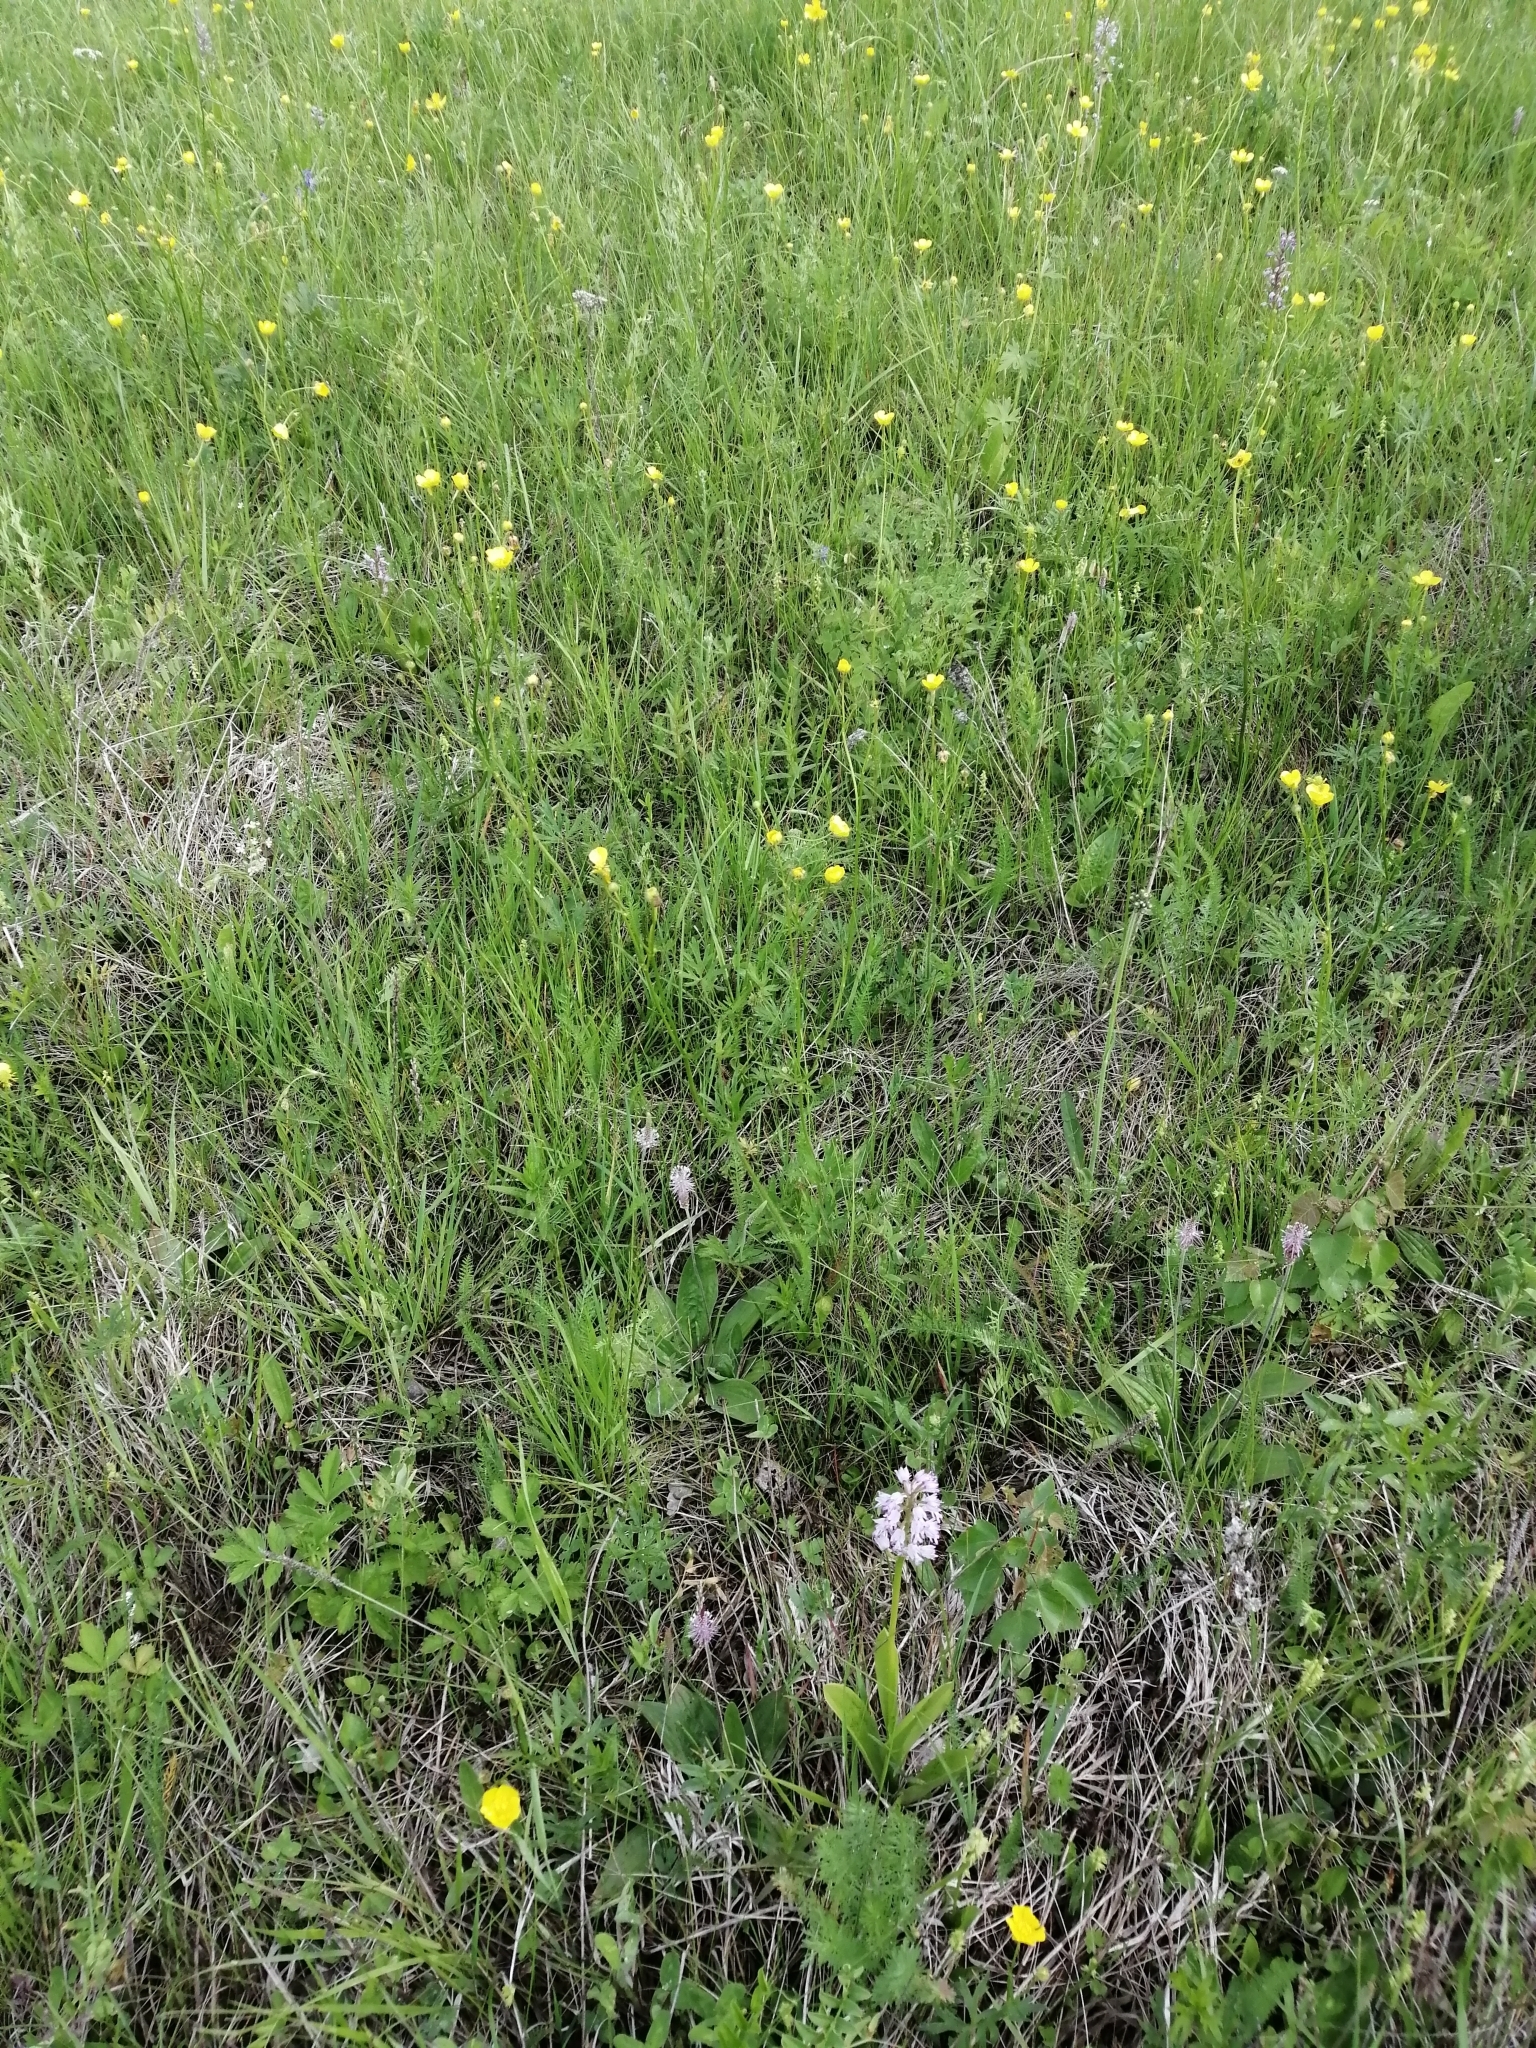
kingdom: Plantae
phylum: Tracheophyta
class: Liliopsida
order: Asparagales
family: Orchidaceae
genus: Orchis
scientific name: Orchis militaris
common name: Military orchid
